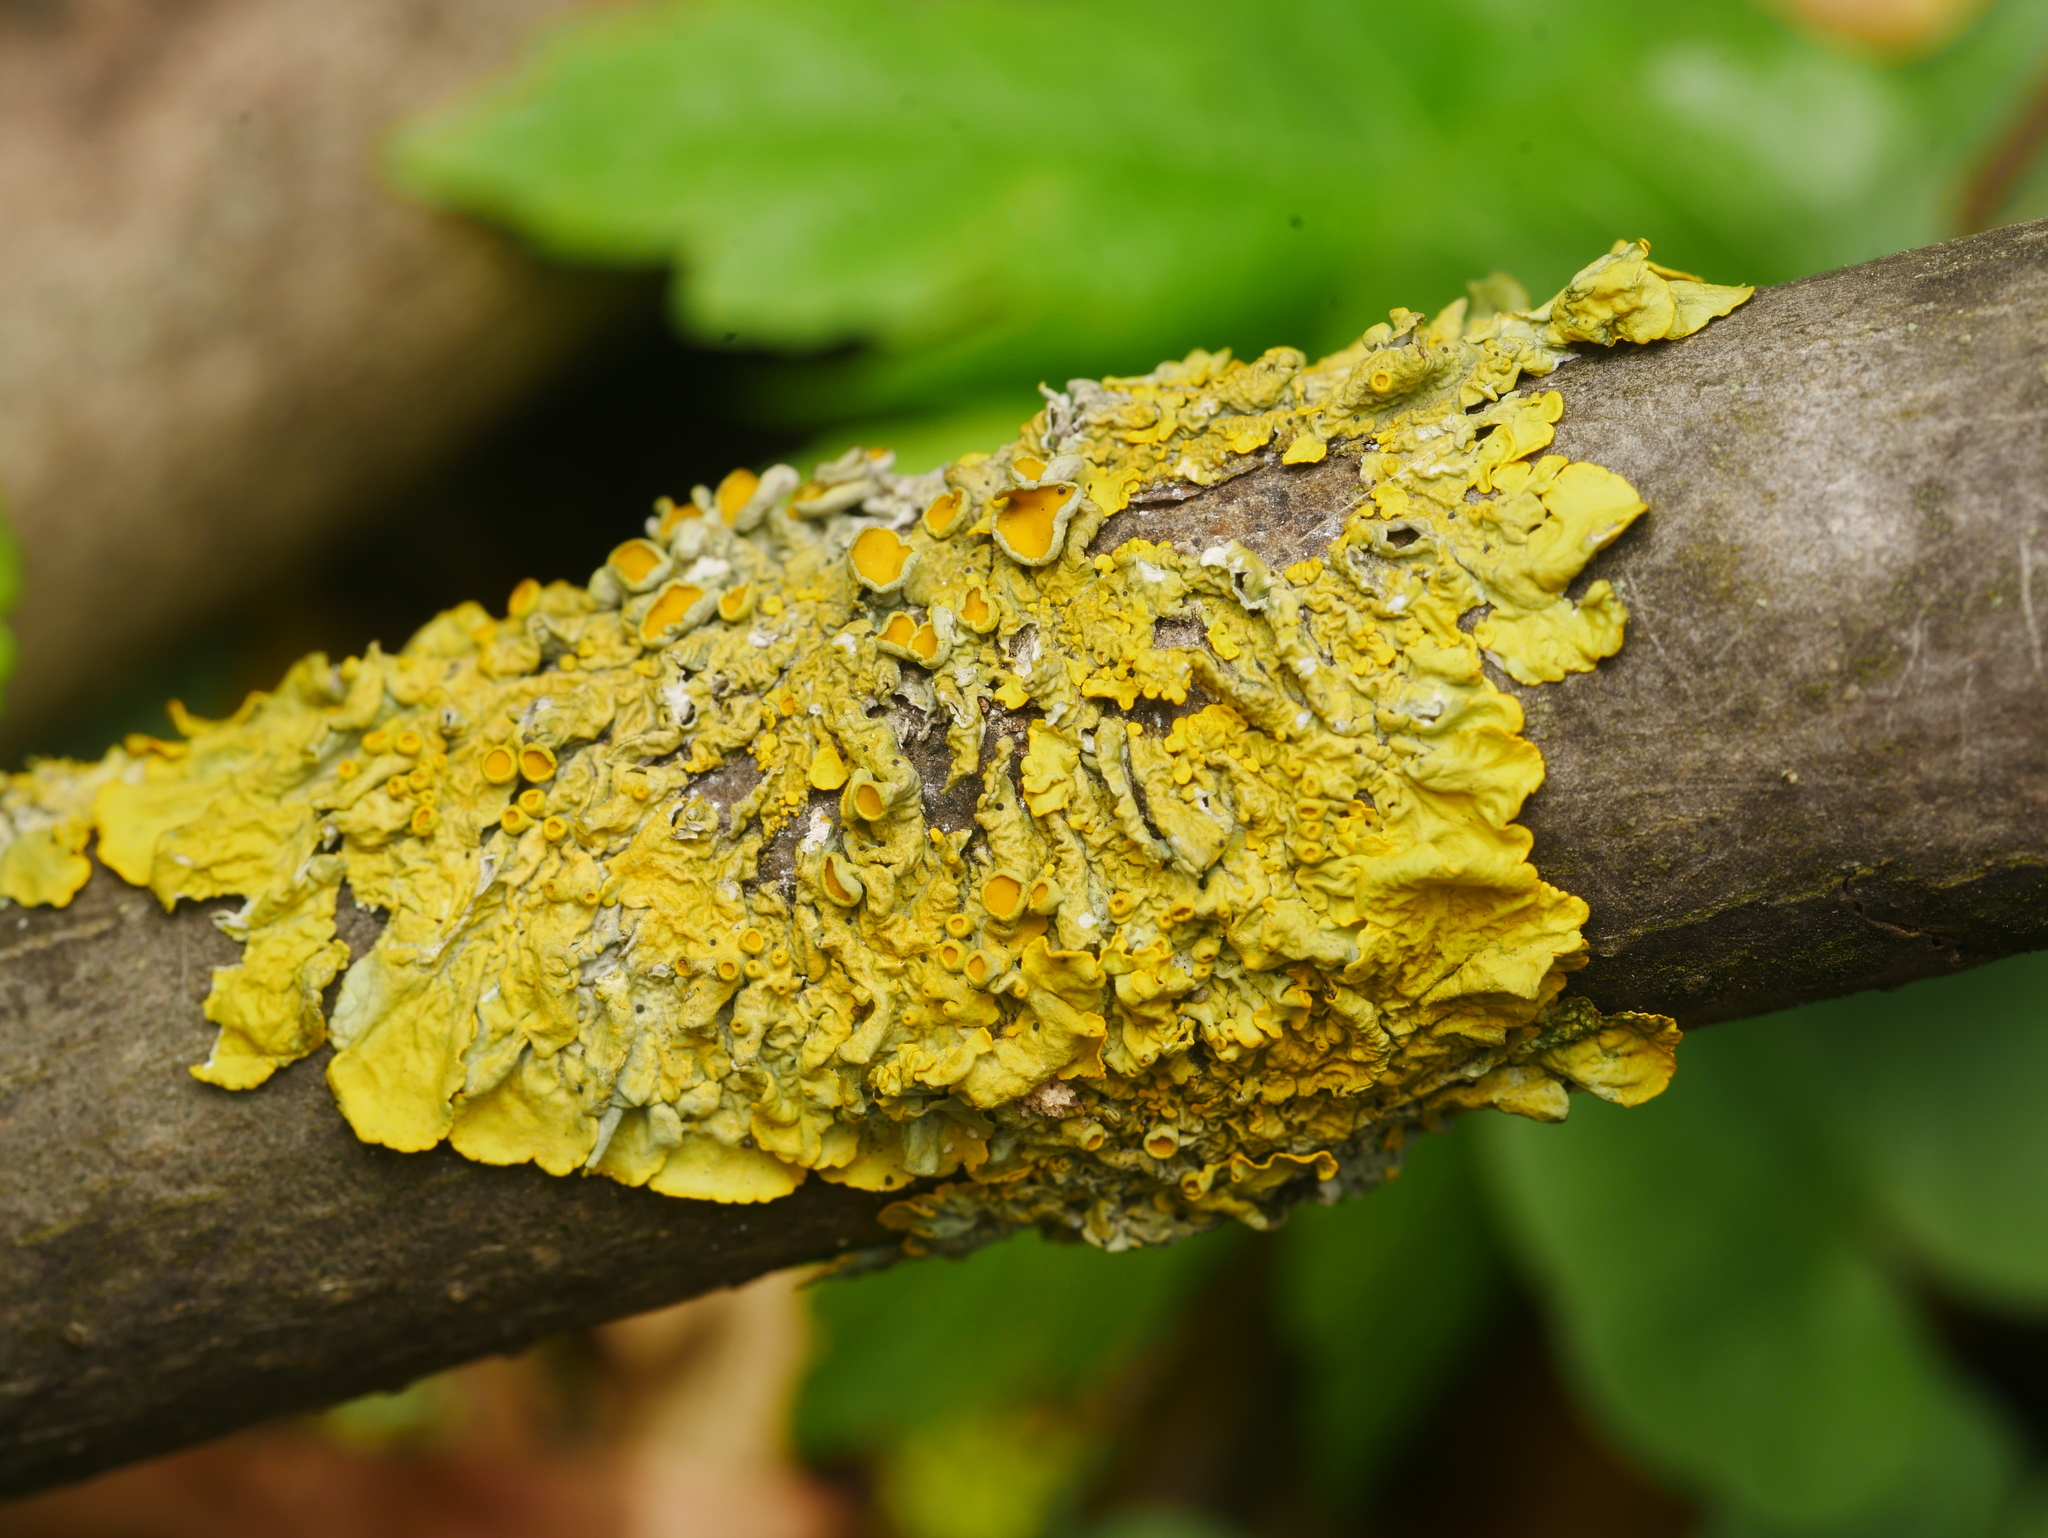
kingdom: Fungi
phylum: Ascomycota
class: Lecanoromycetes
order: Teloschistales
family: Teloschistaceae
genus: Xanthoria
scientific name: Xanthoria parietina
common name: Common orange lichen
